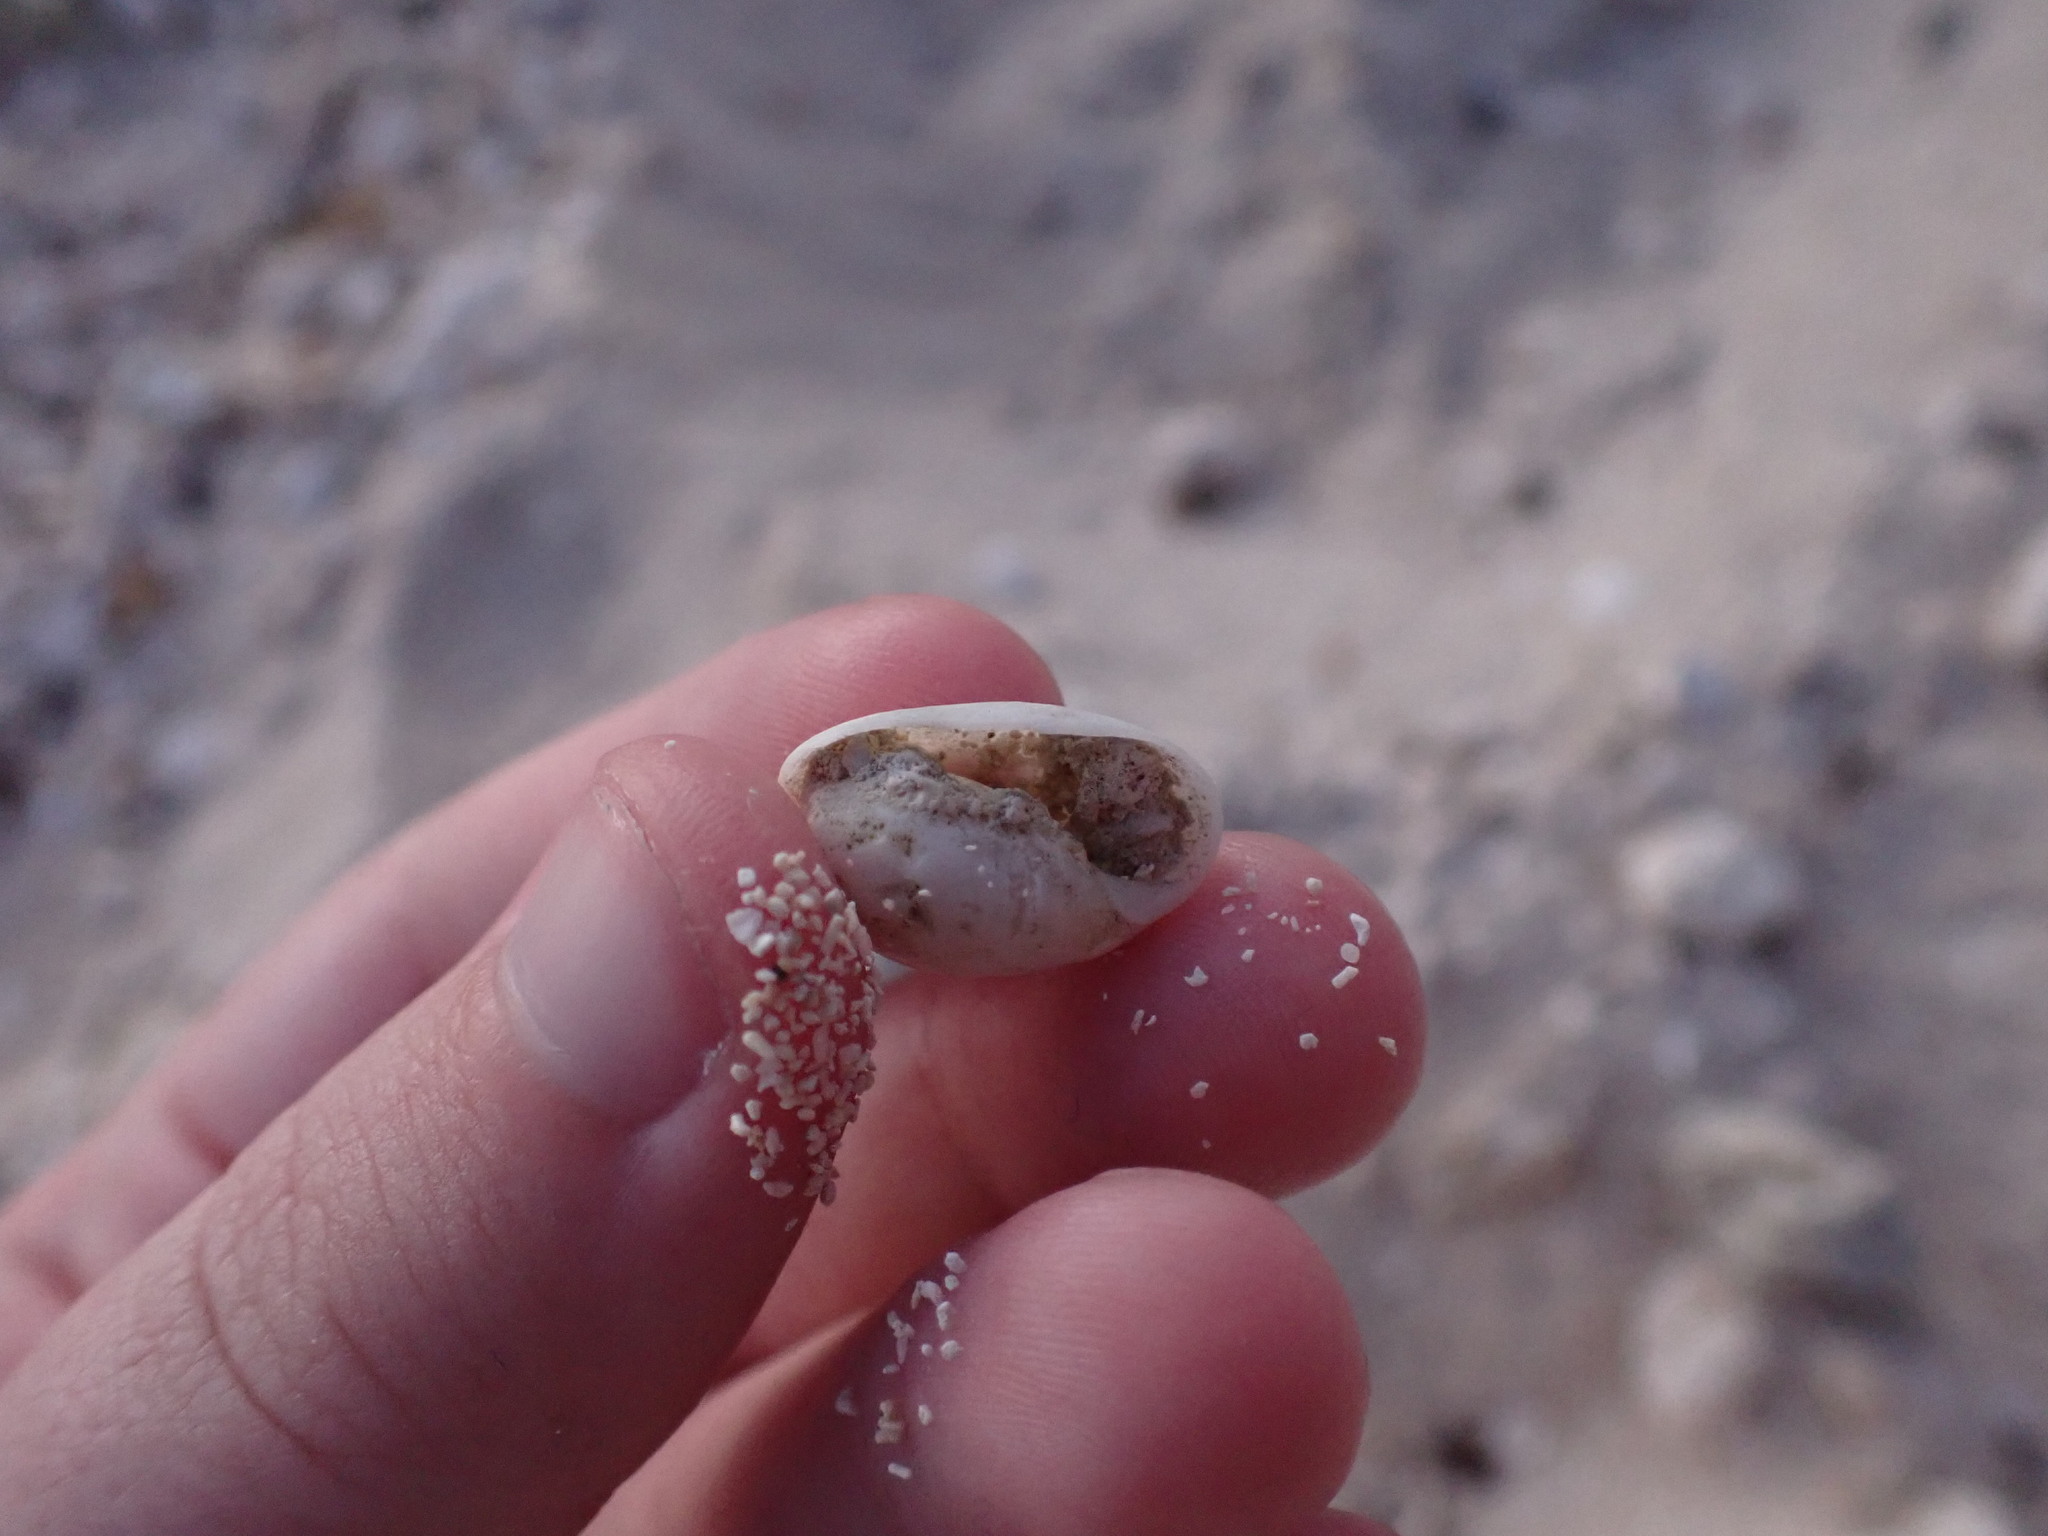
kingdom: Animalia
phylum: Mollusca
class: Gastropoda
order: Cephalaspidea
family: Bullidae
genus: Bulla
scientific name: Bulla occidentalis
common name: Common west-indian bubble
